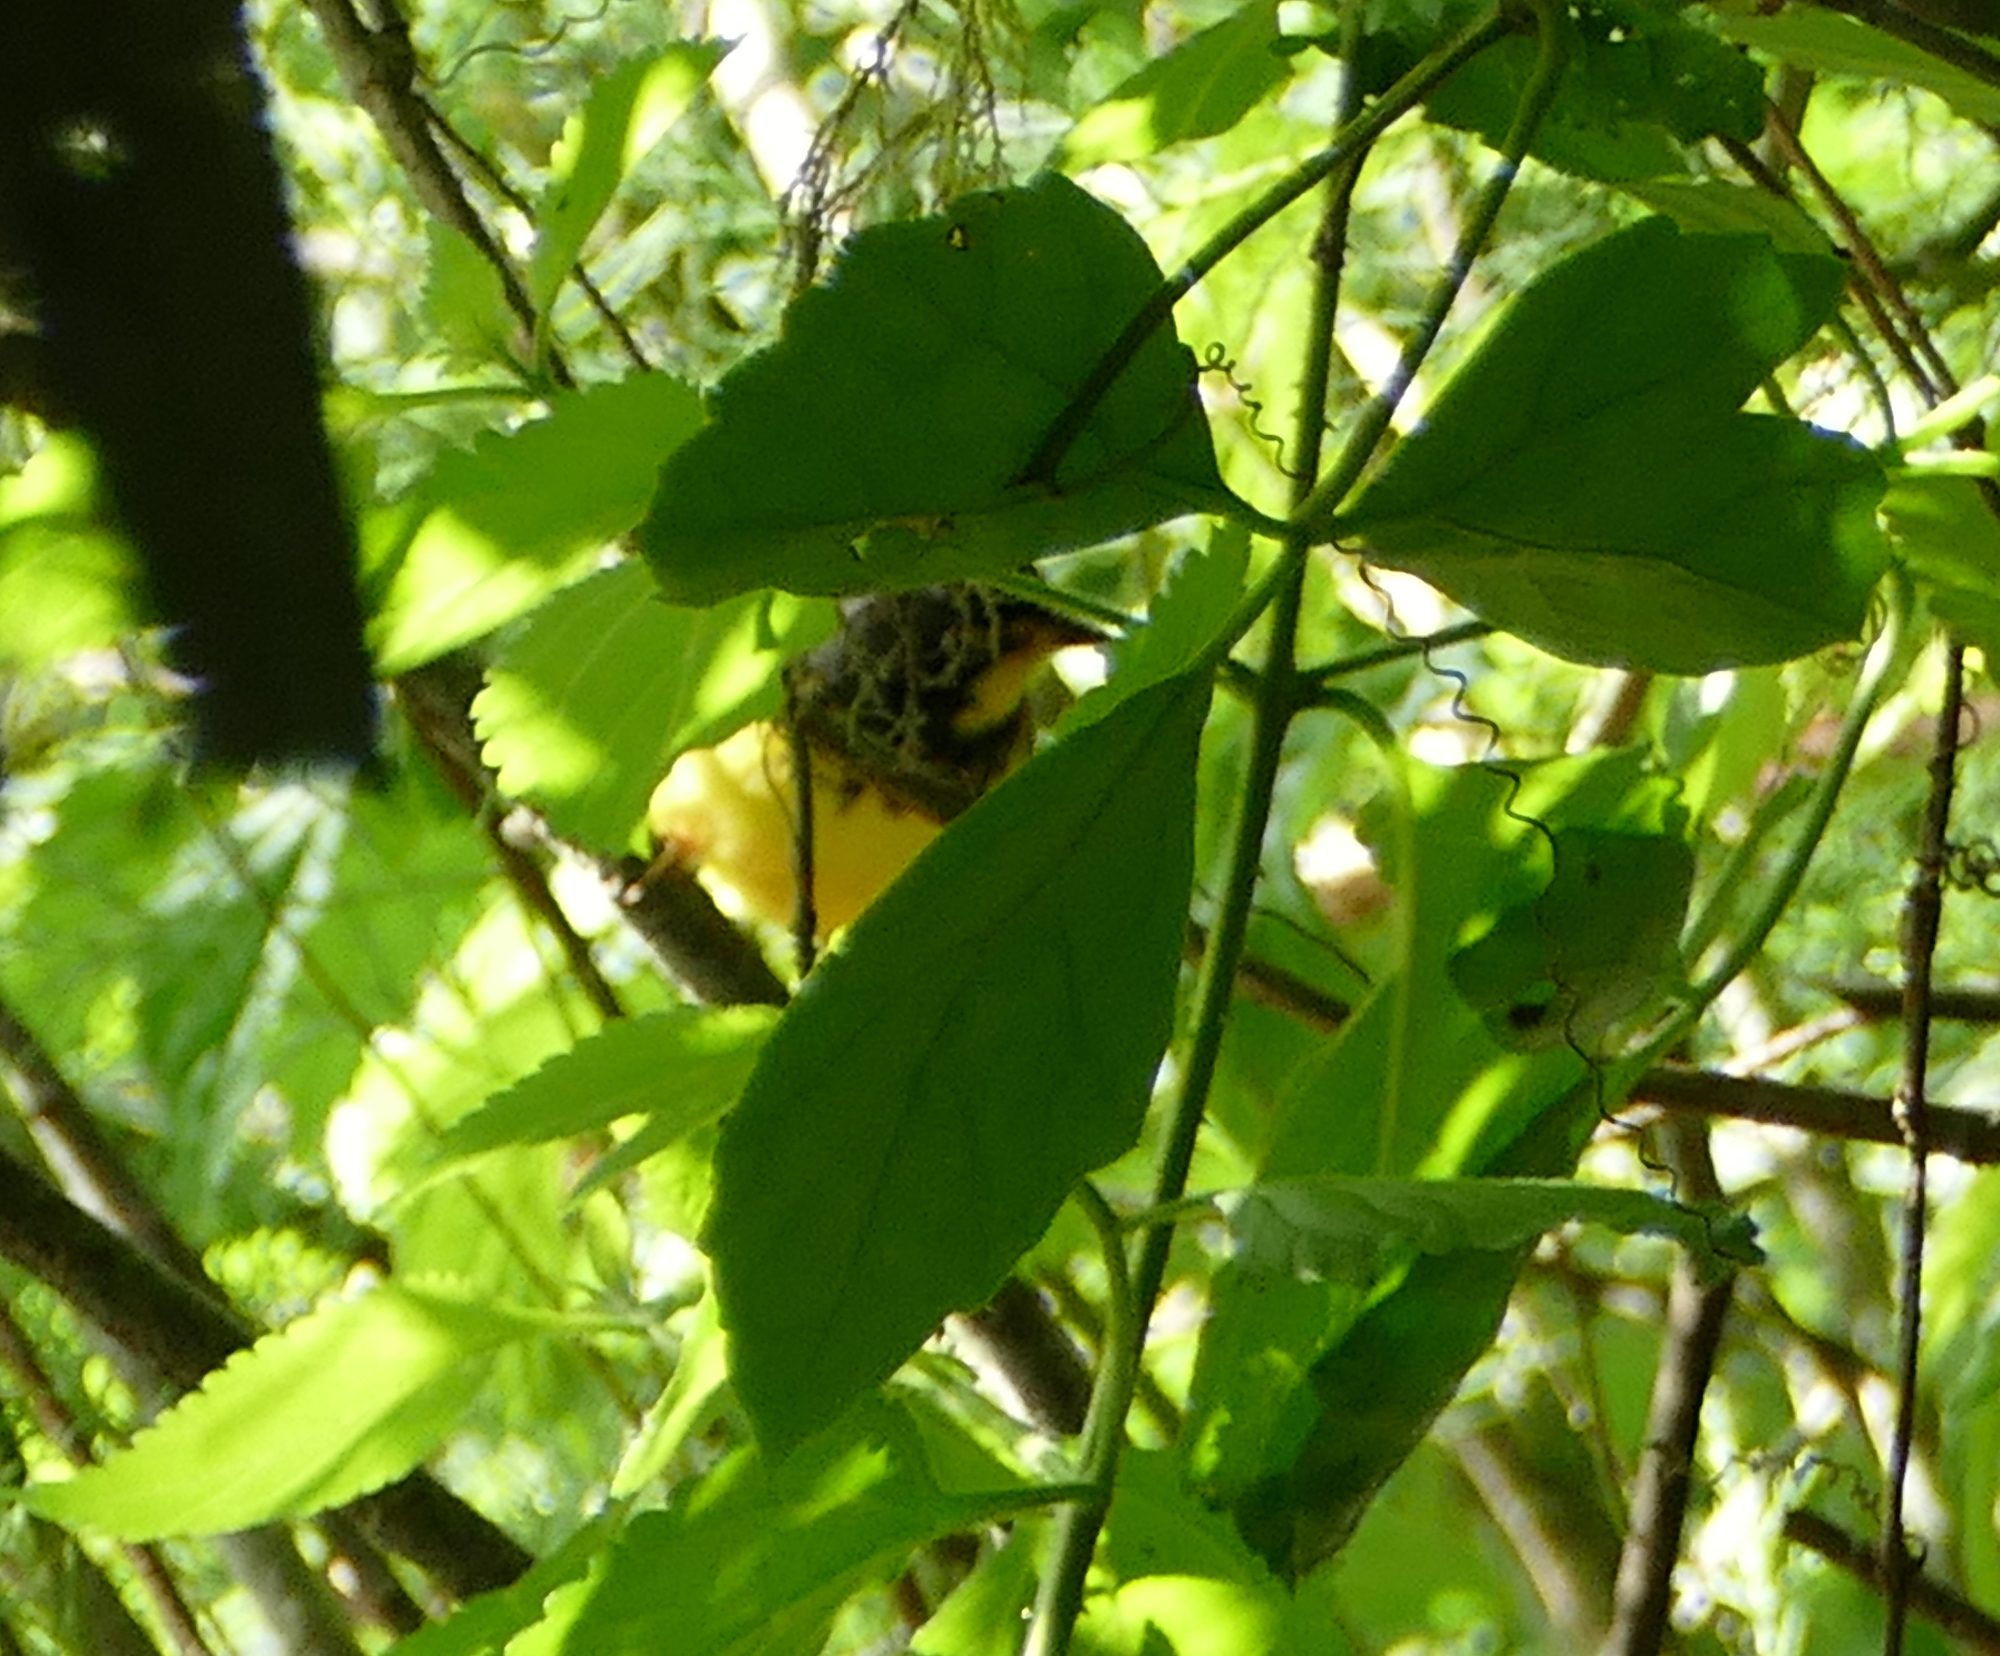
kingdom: Animalia
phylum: Chordata
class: Aves
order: Passeriformes
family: Parulidae
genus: Cardellina
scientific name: Cardellina canadensis
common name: Canada warbler
